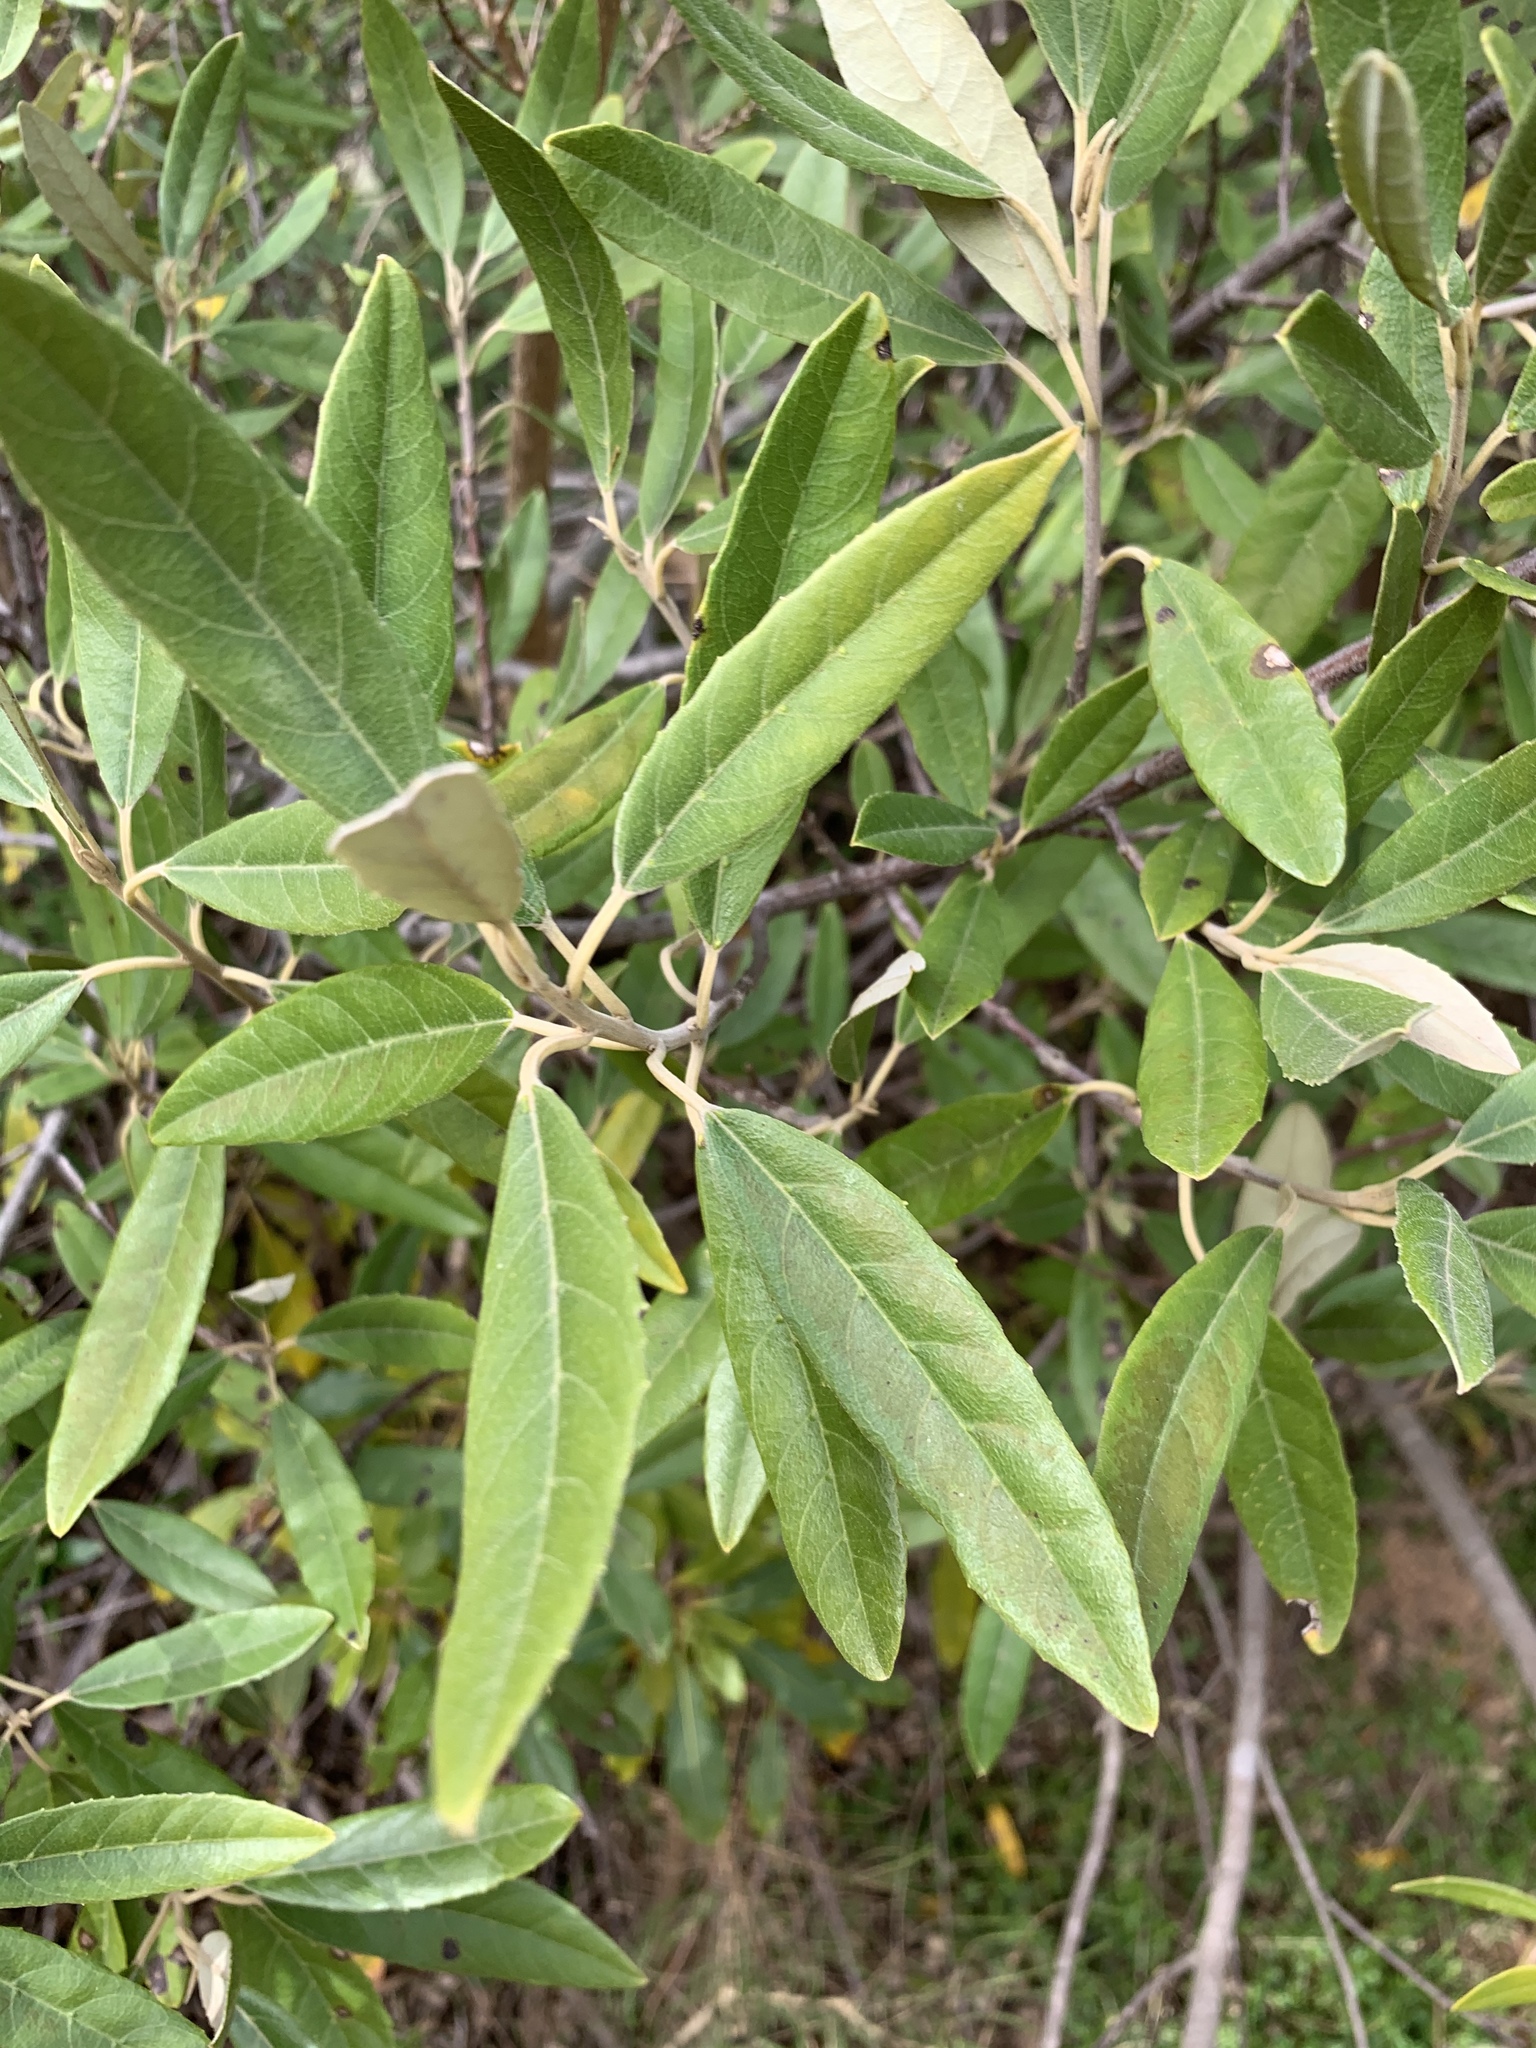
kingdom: Plantae
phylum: Tracheophyta
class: Magnoliopsida
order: Malpighiales
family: Achariaceae
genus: Kiggelaria
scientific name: Kiggelaria africana
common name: Wild peach
